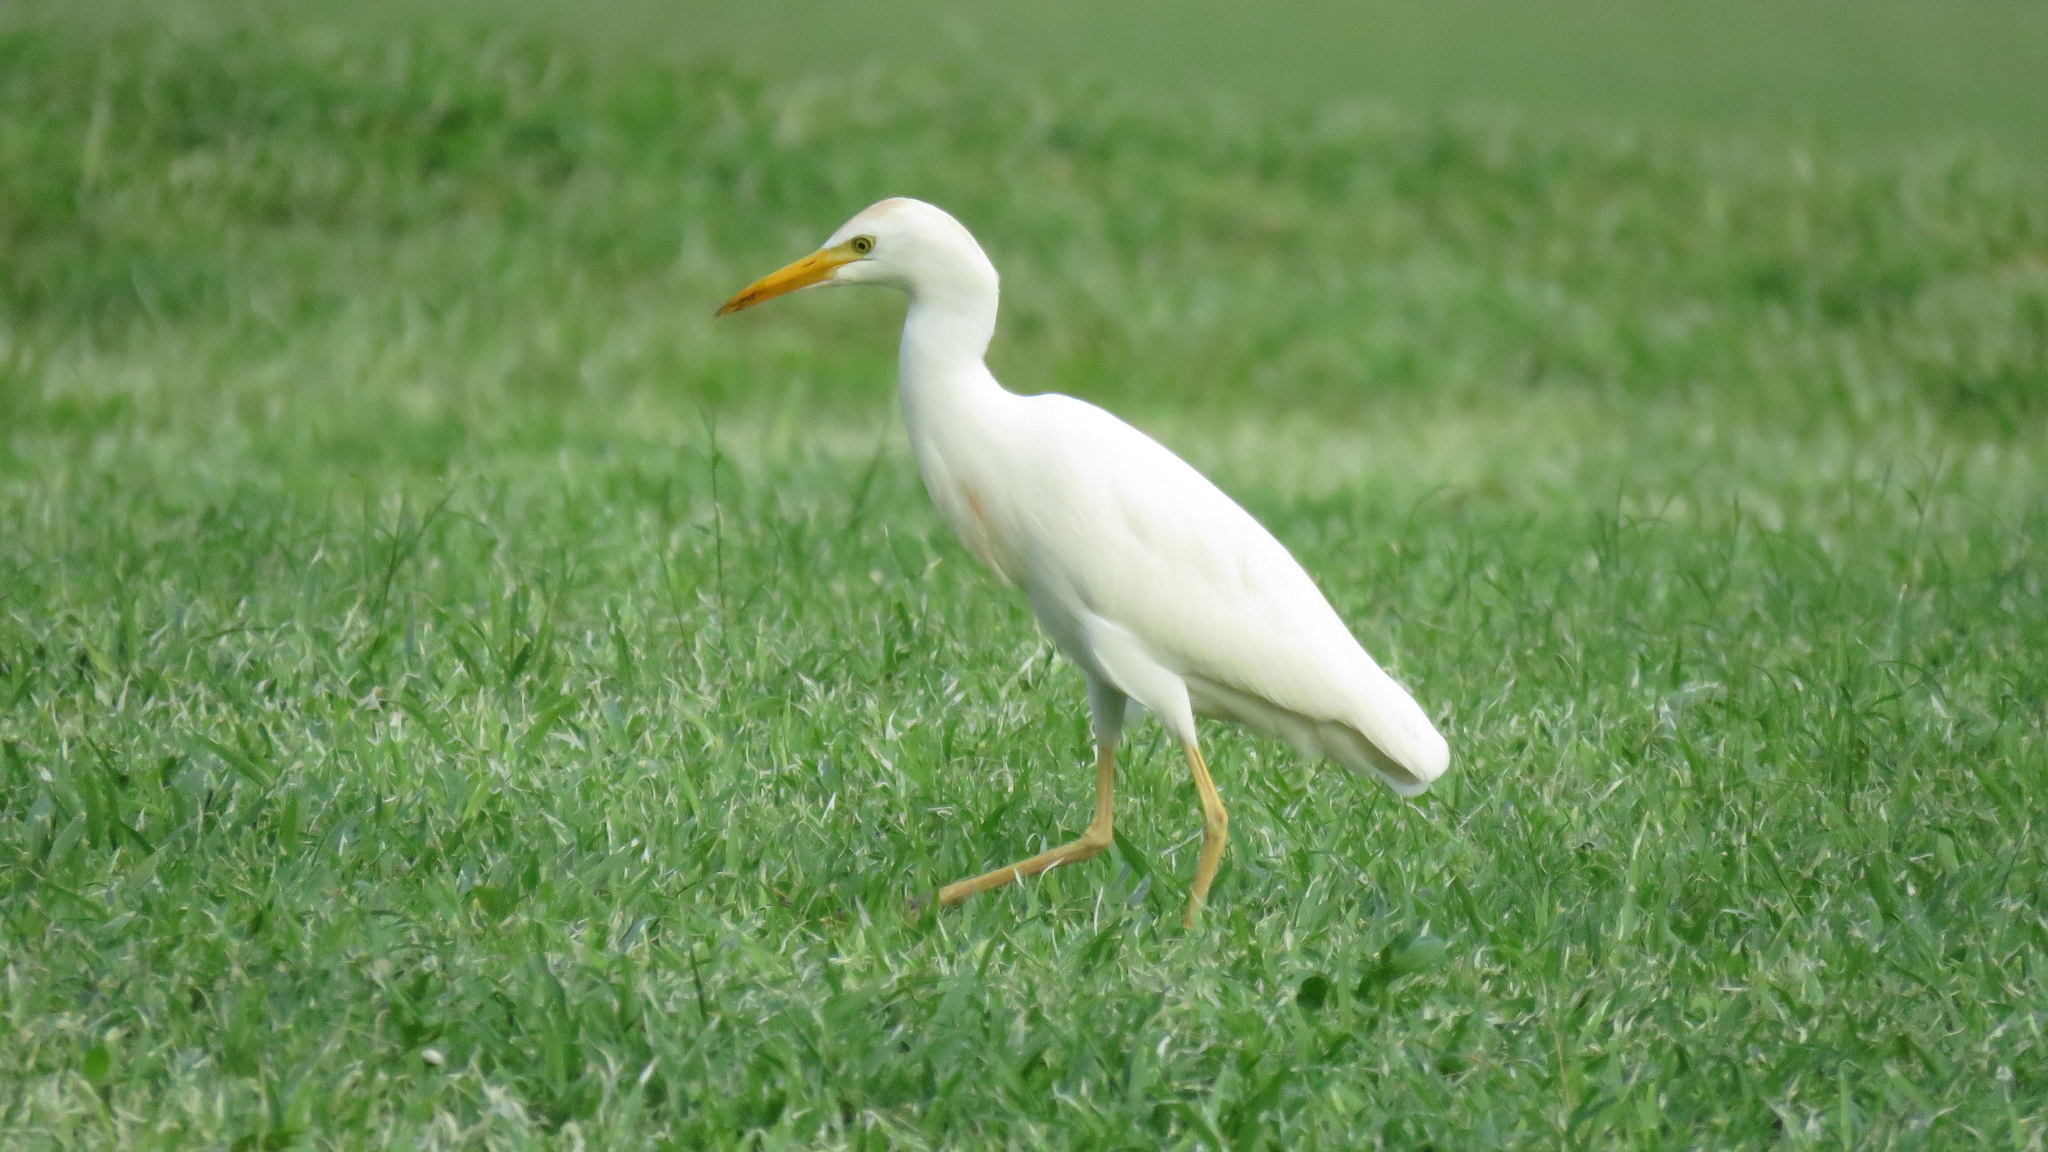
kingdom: Animalia
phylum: Chordata
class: Aves
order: Pelecaniformes
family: Ardeidae
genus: Bubulcus
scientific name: Bubulcus ibis
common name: Cattle egret
